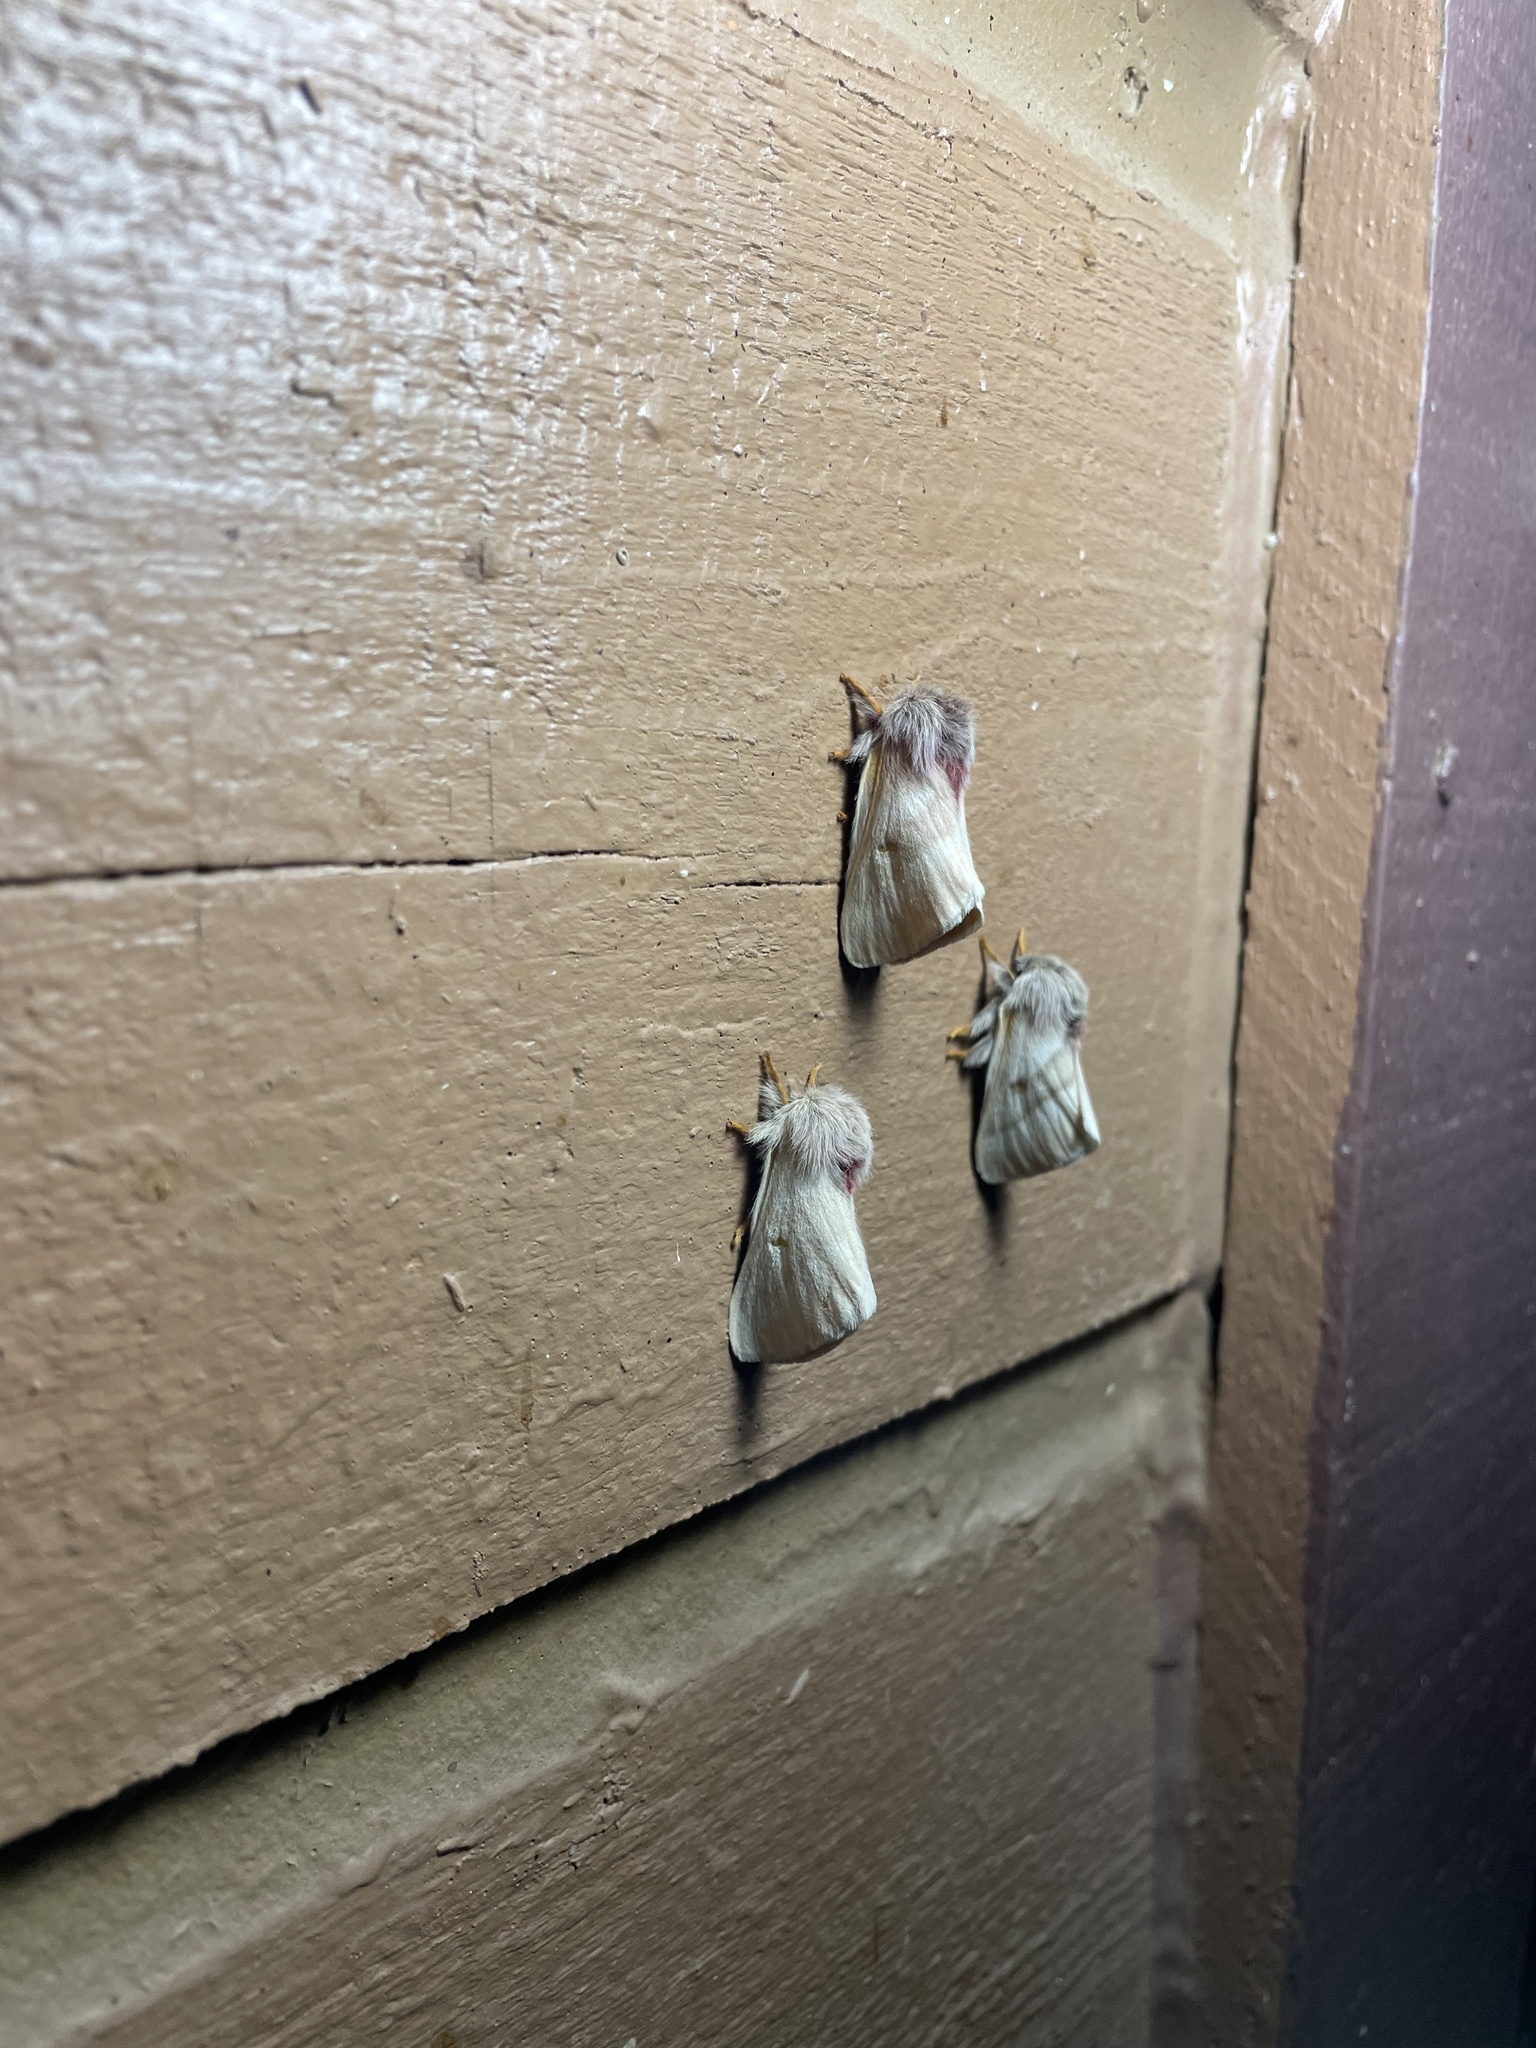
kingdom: Animalia
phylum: Arthropoda
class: Insecta
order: Lepidoptera
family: Saturniidae
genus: Hemileuca
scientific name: Hemileuca oliviae
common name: Range caterpillar moth
